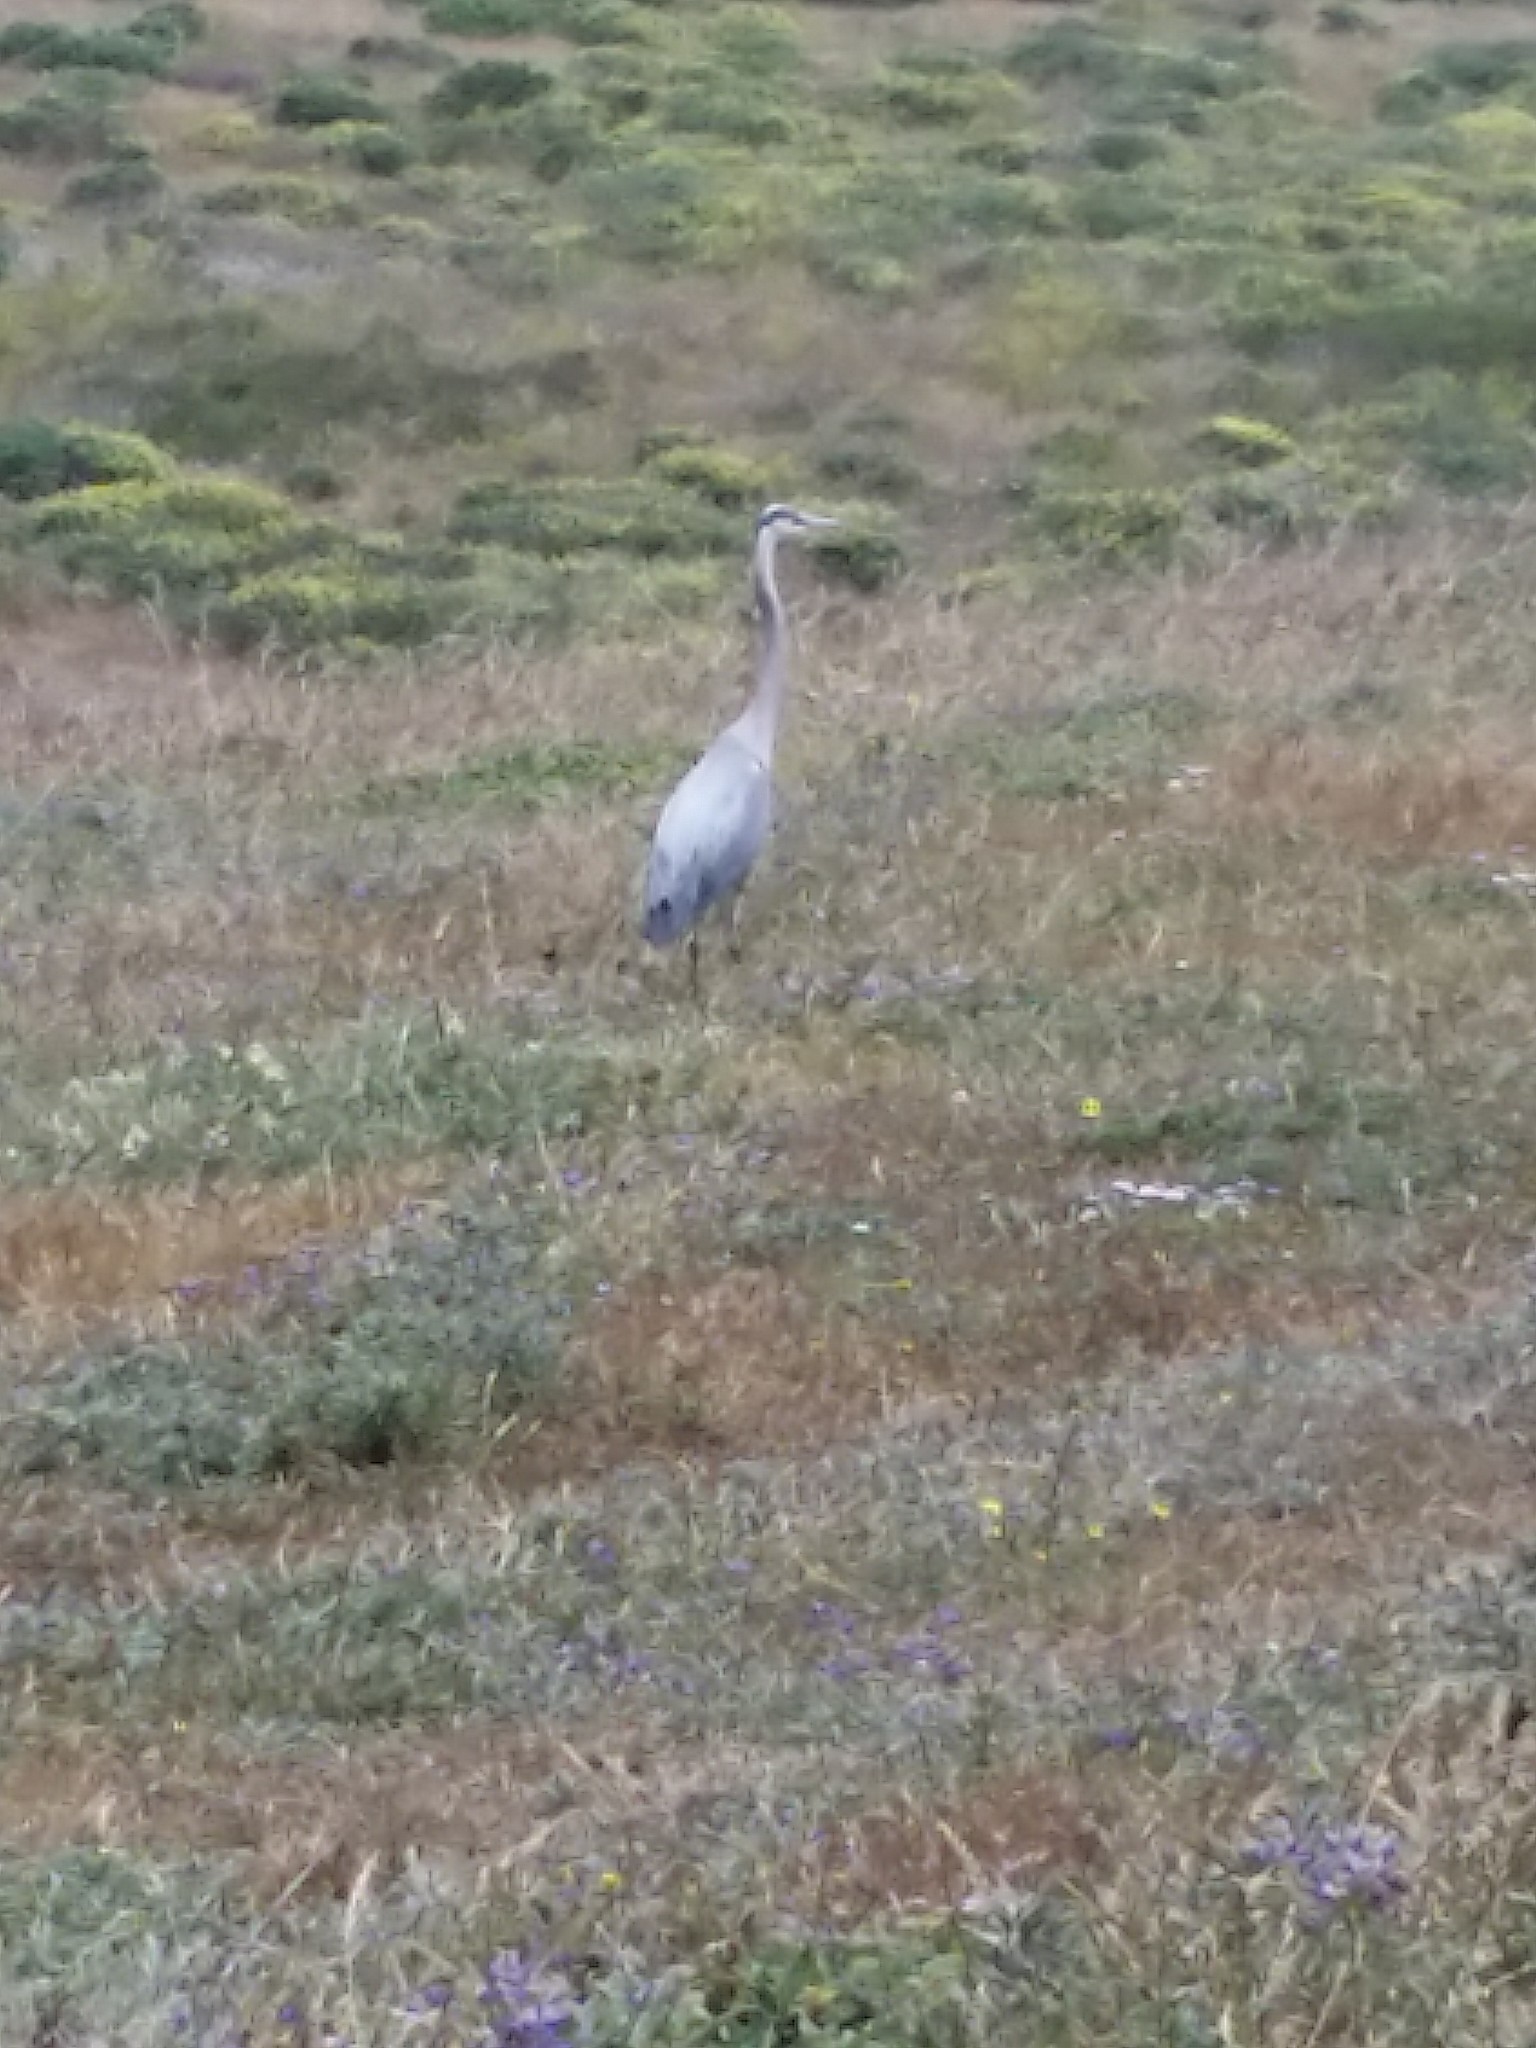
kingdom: Animalia
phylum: Chordata
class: Aves
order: Pelecaniformes
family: Ardeidae
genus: Ardea
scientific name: Ardea herodias
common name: Great blue heron
